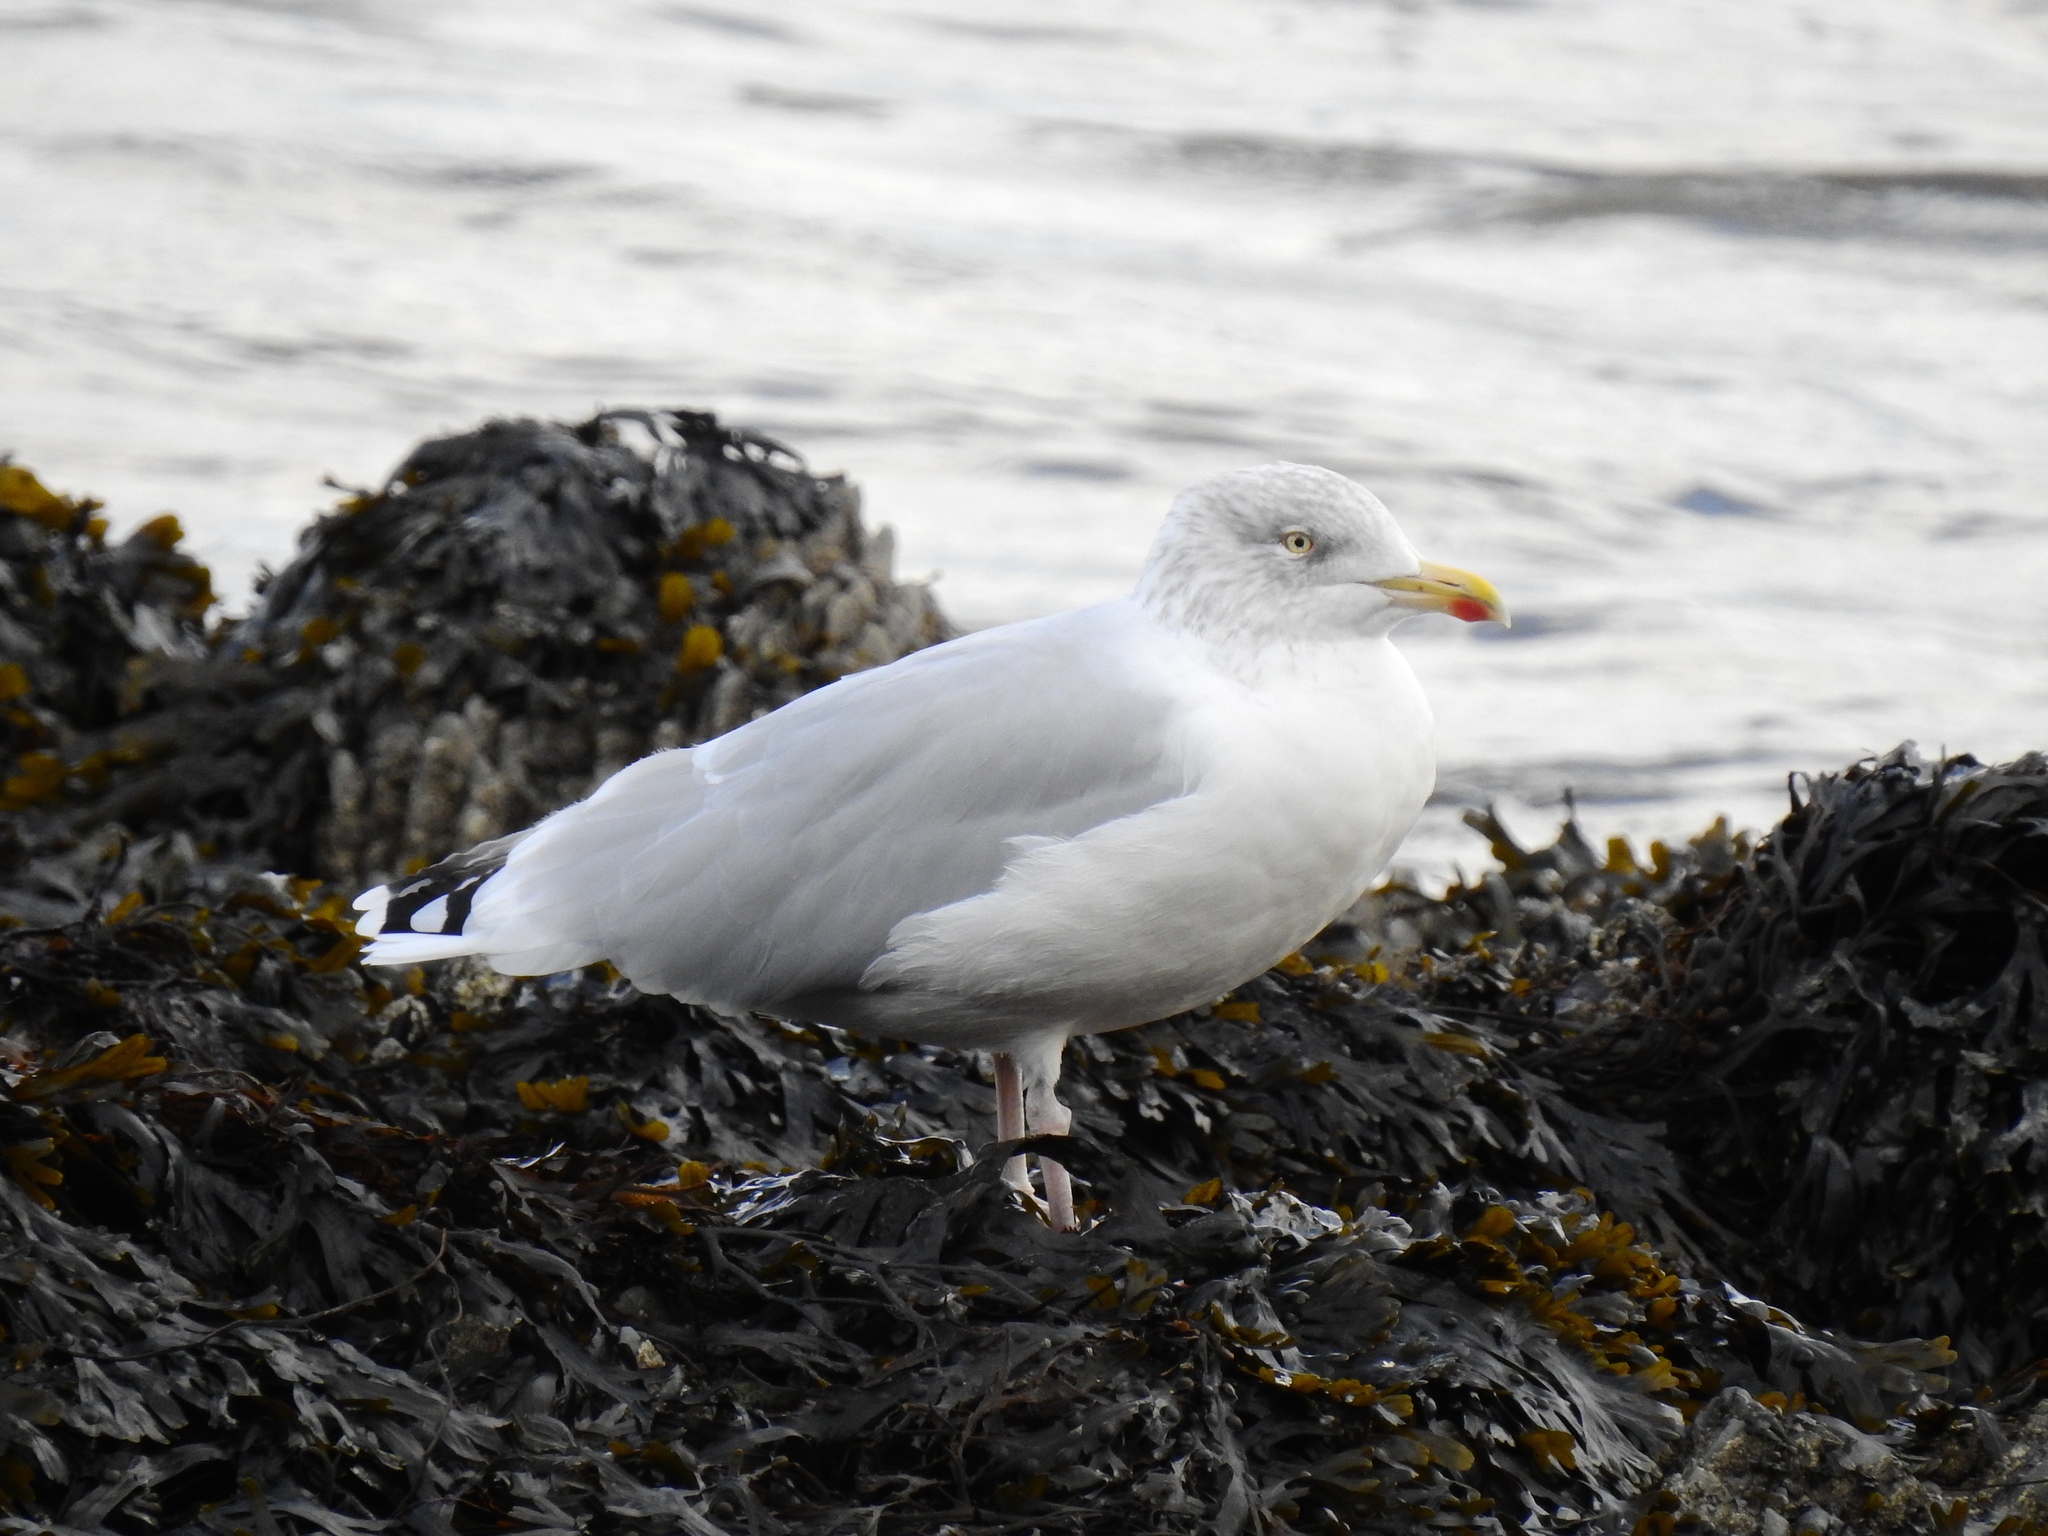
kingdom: Animalia
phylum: Chordata
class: Aves
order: Charadriiformes
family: Laridae
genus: Larus
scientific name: Larus argentatus
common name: Herring gull
